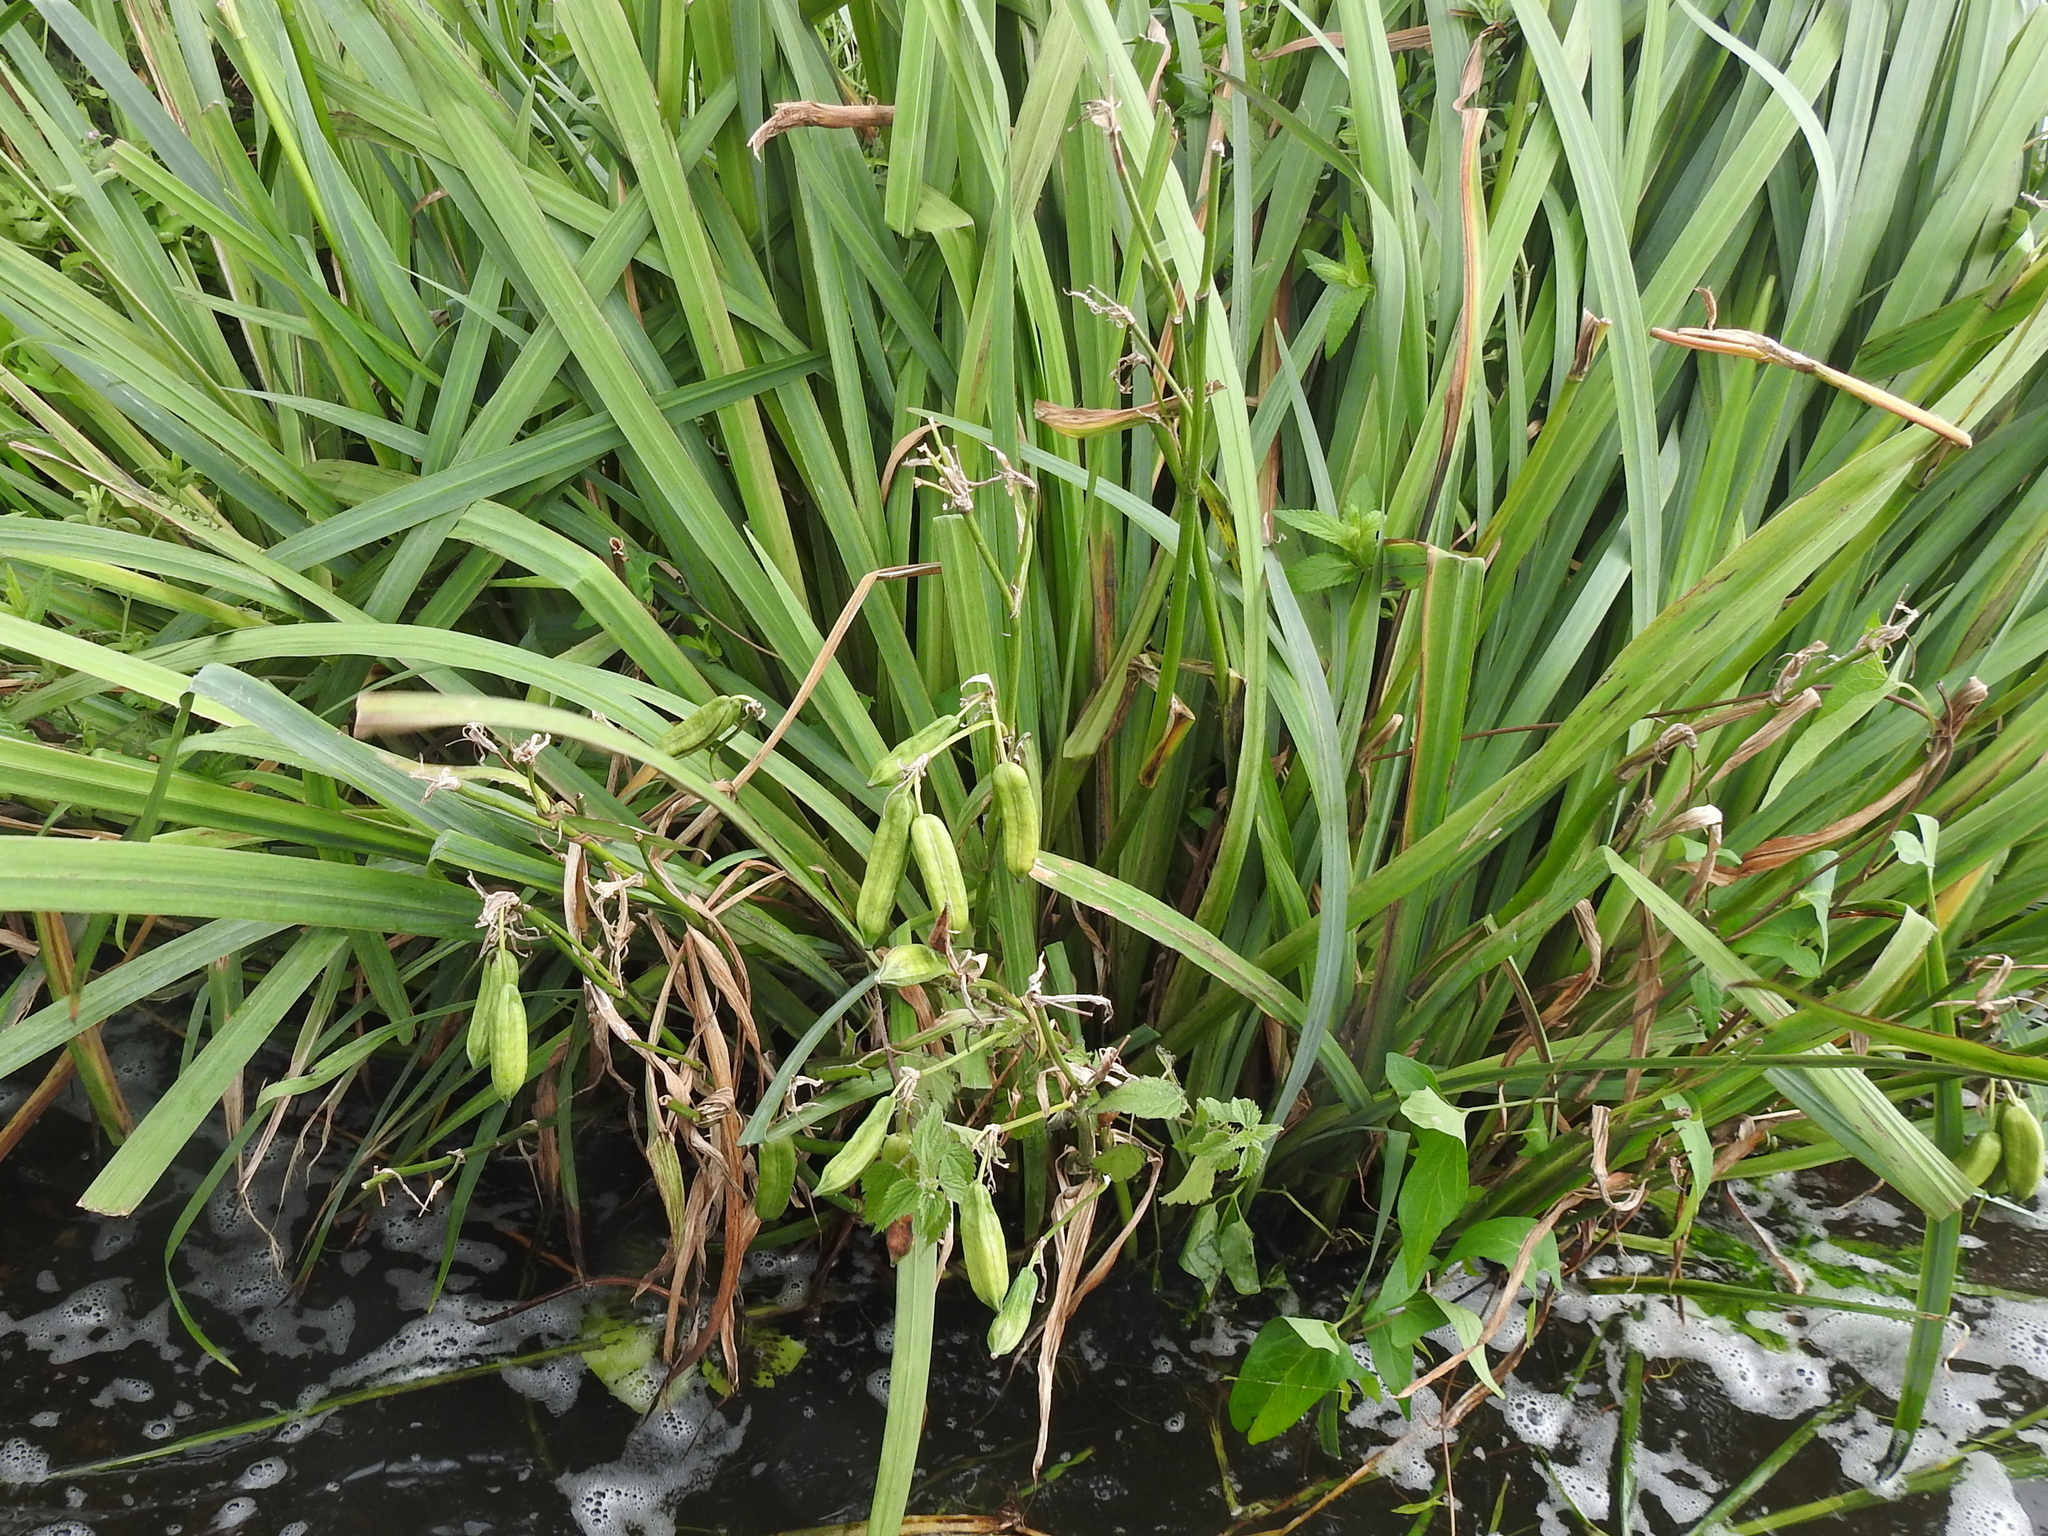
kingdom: Plantae
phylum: Tracheophyta
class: Liliopsida
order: Asparagales
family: Iridaceae
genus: Iris
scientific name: Iris pseudacorus
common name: Yellow flag
